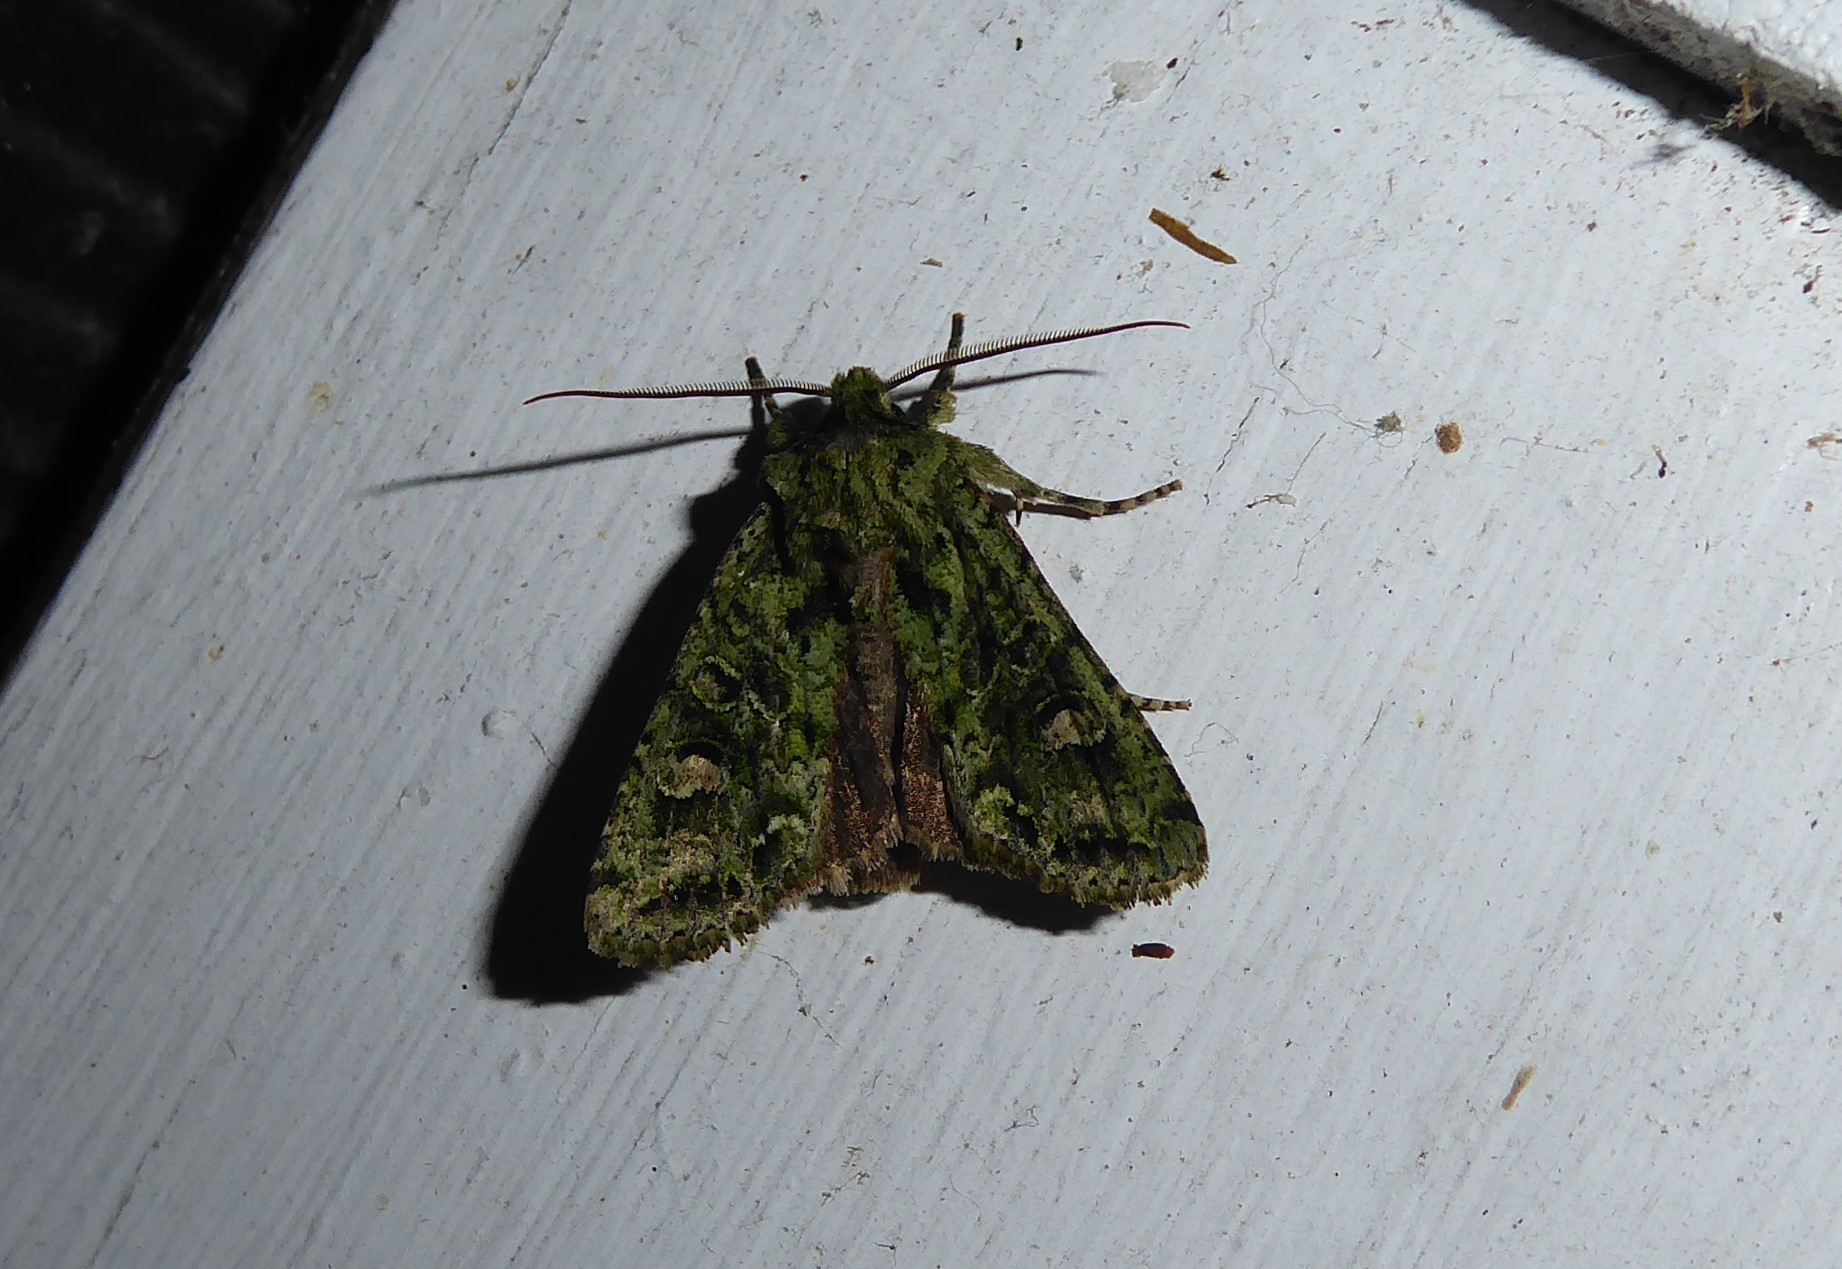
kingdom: Animalia
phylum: Arthropoda
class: Insecta
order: Lepidoptera
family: Noctuidae
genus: Ichneutica
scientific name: Ichneutica
